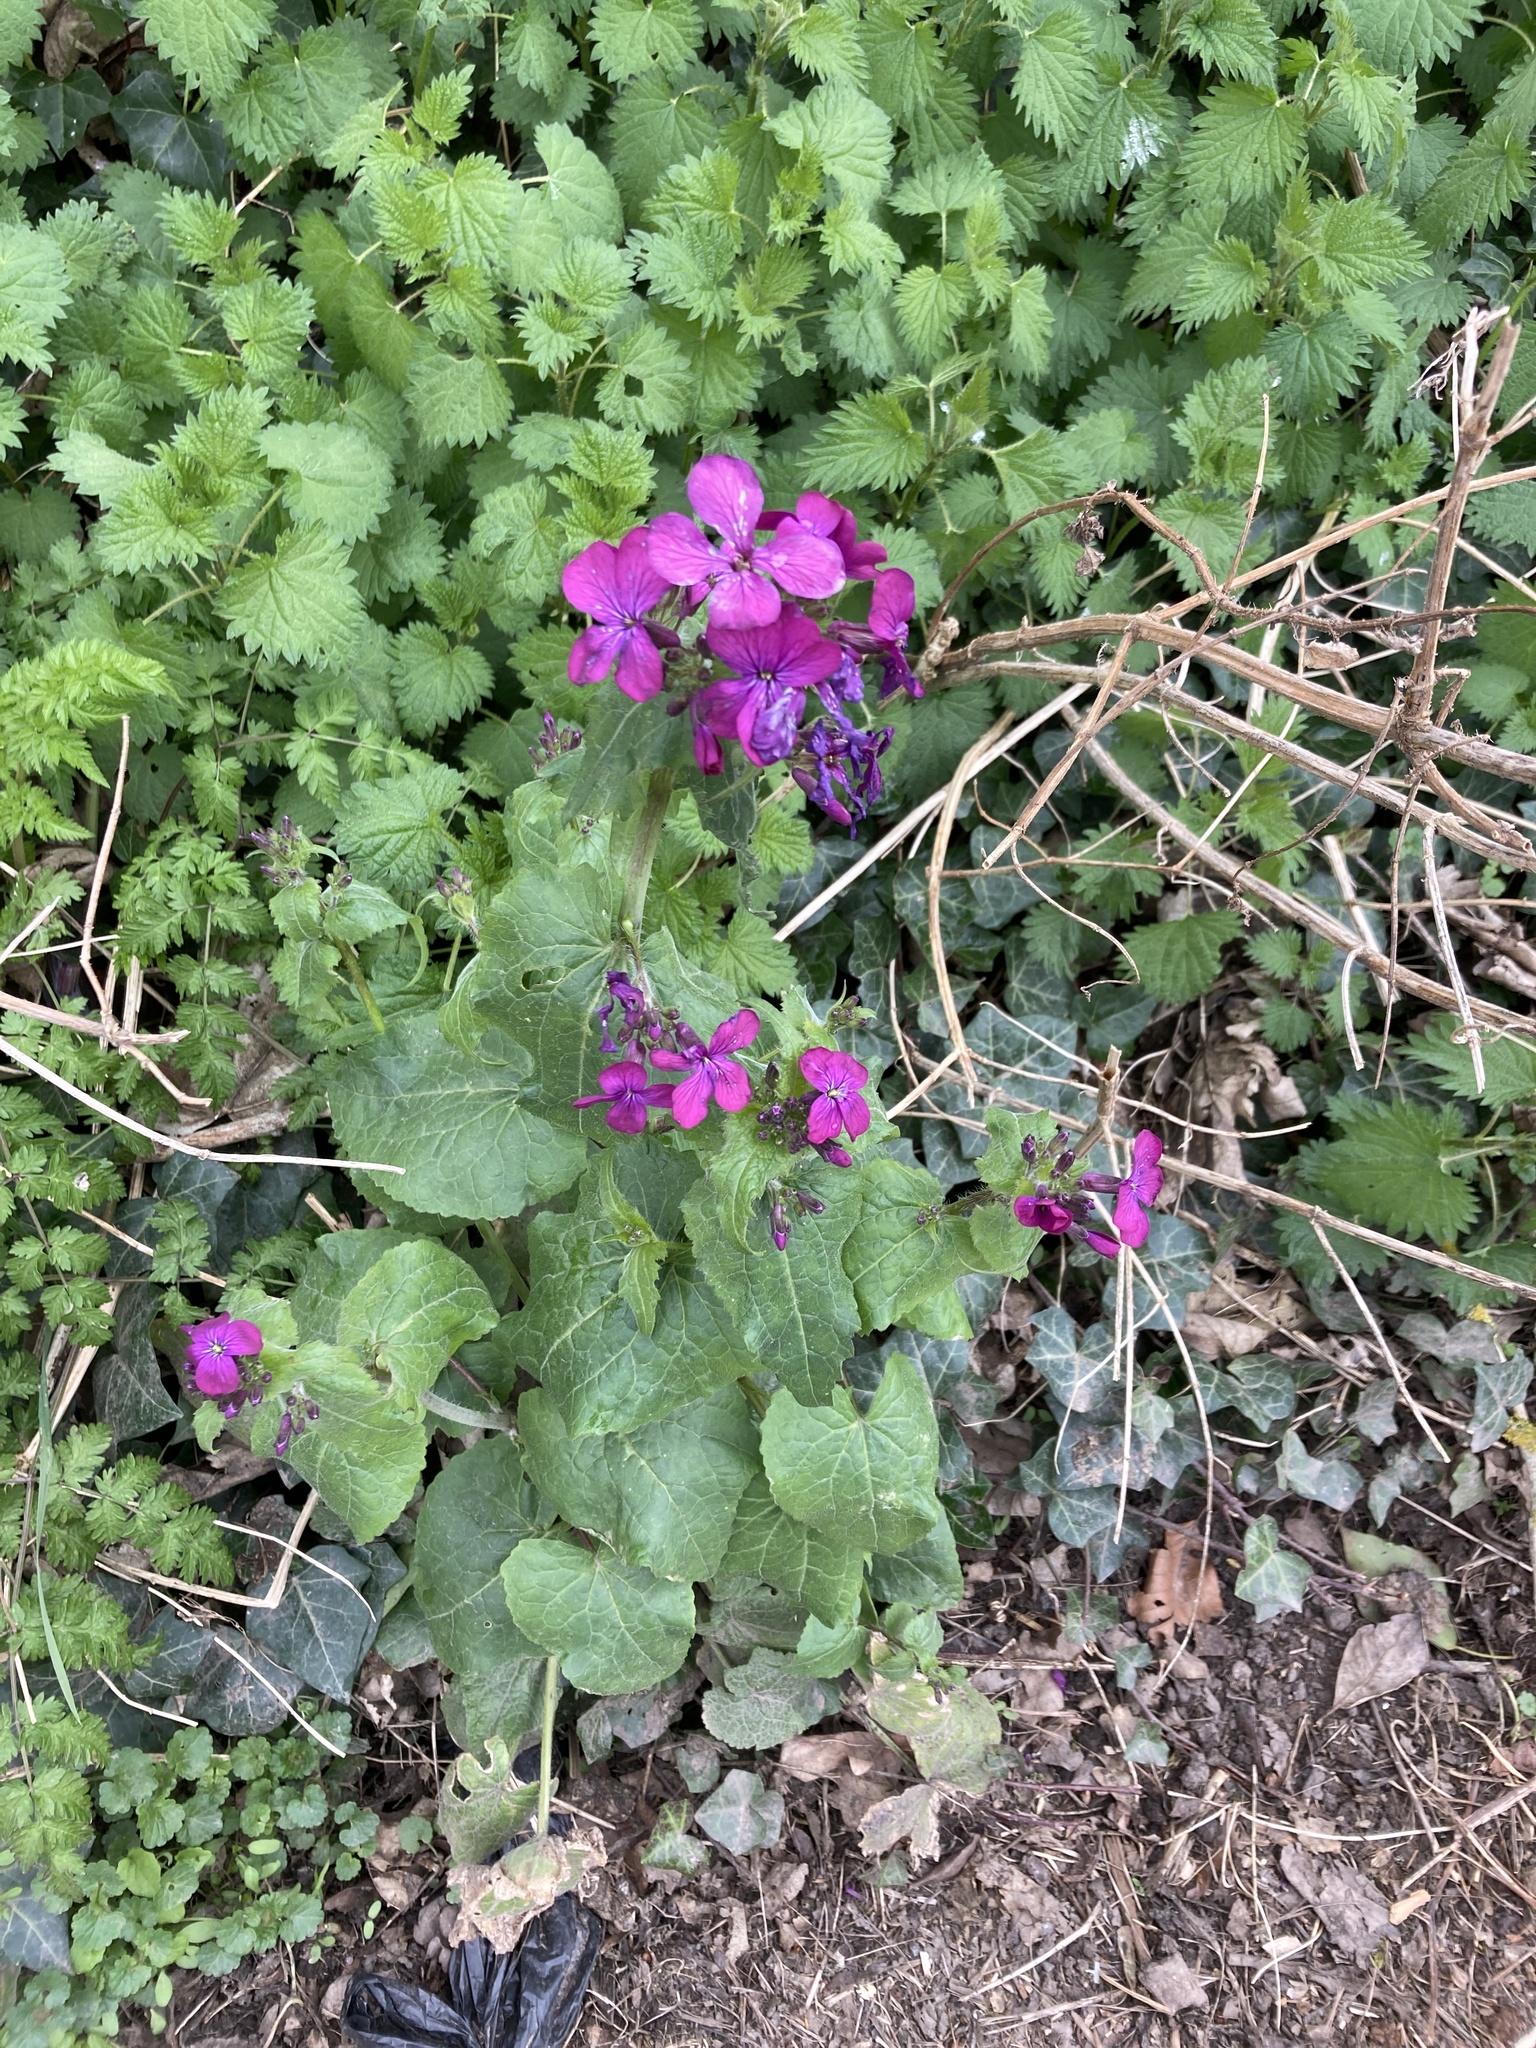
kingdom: Plantae
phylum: Tracheophyta
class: Magnoliopsida
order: Brassicales
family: Brassicaceae
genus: Lunaria
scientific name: Lunaria annua
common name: Honesty
